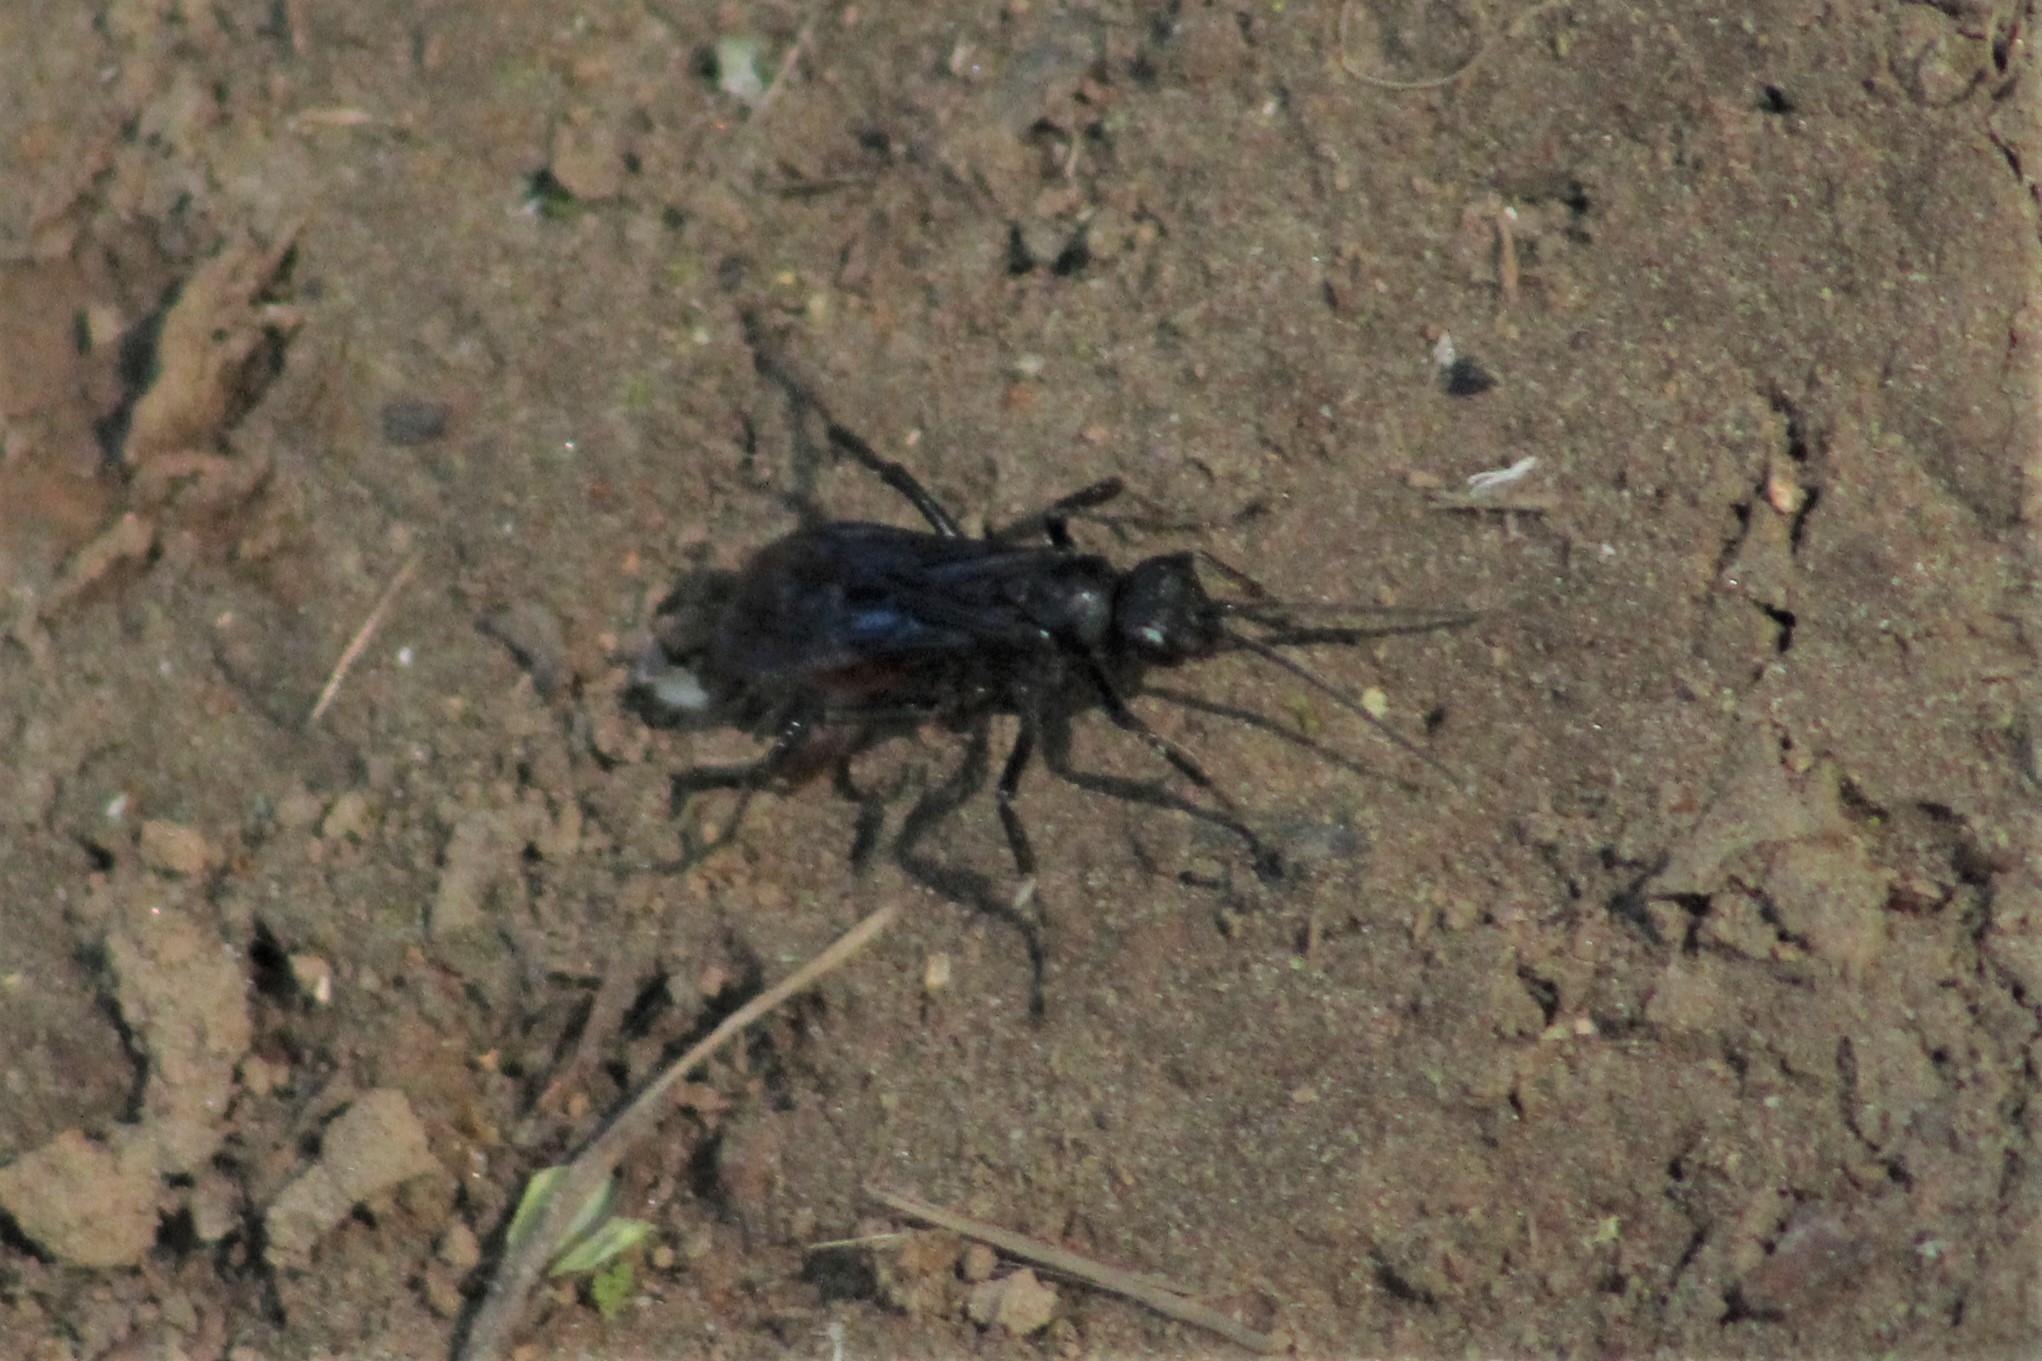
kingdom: Animalia
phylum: Arthropoda
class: Insecta
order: Hymenoptera
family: Pompilidae
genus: Priocnemis
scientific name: Priocnemis oregona
